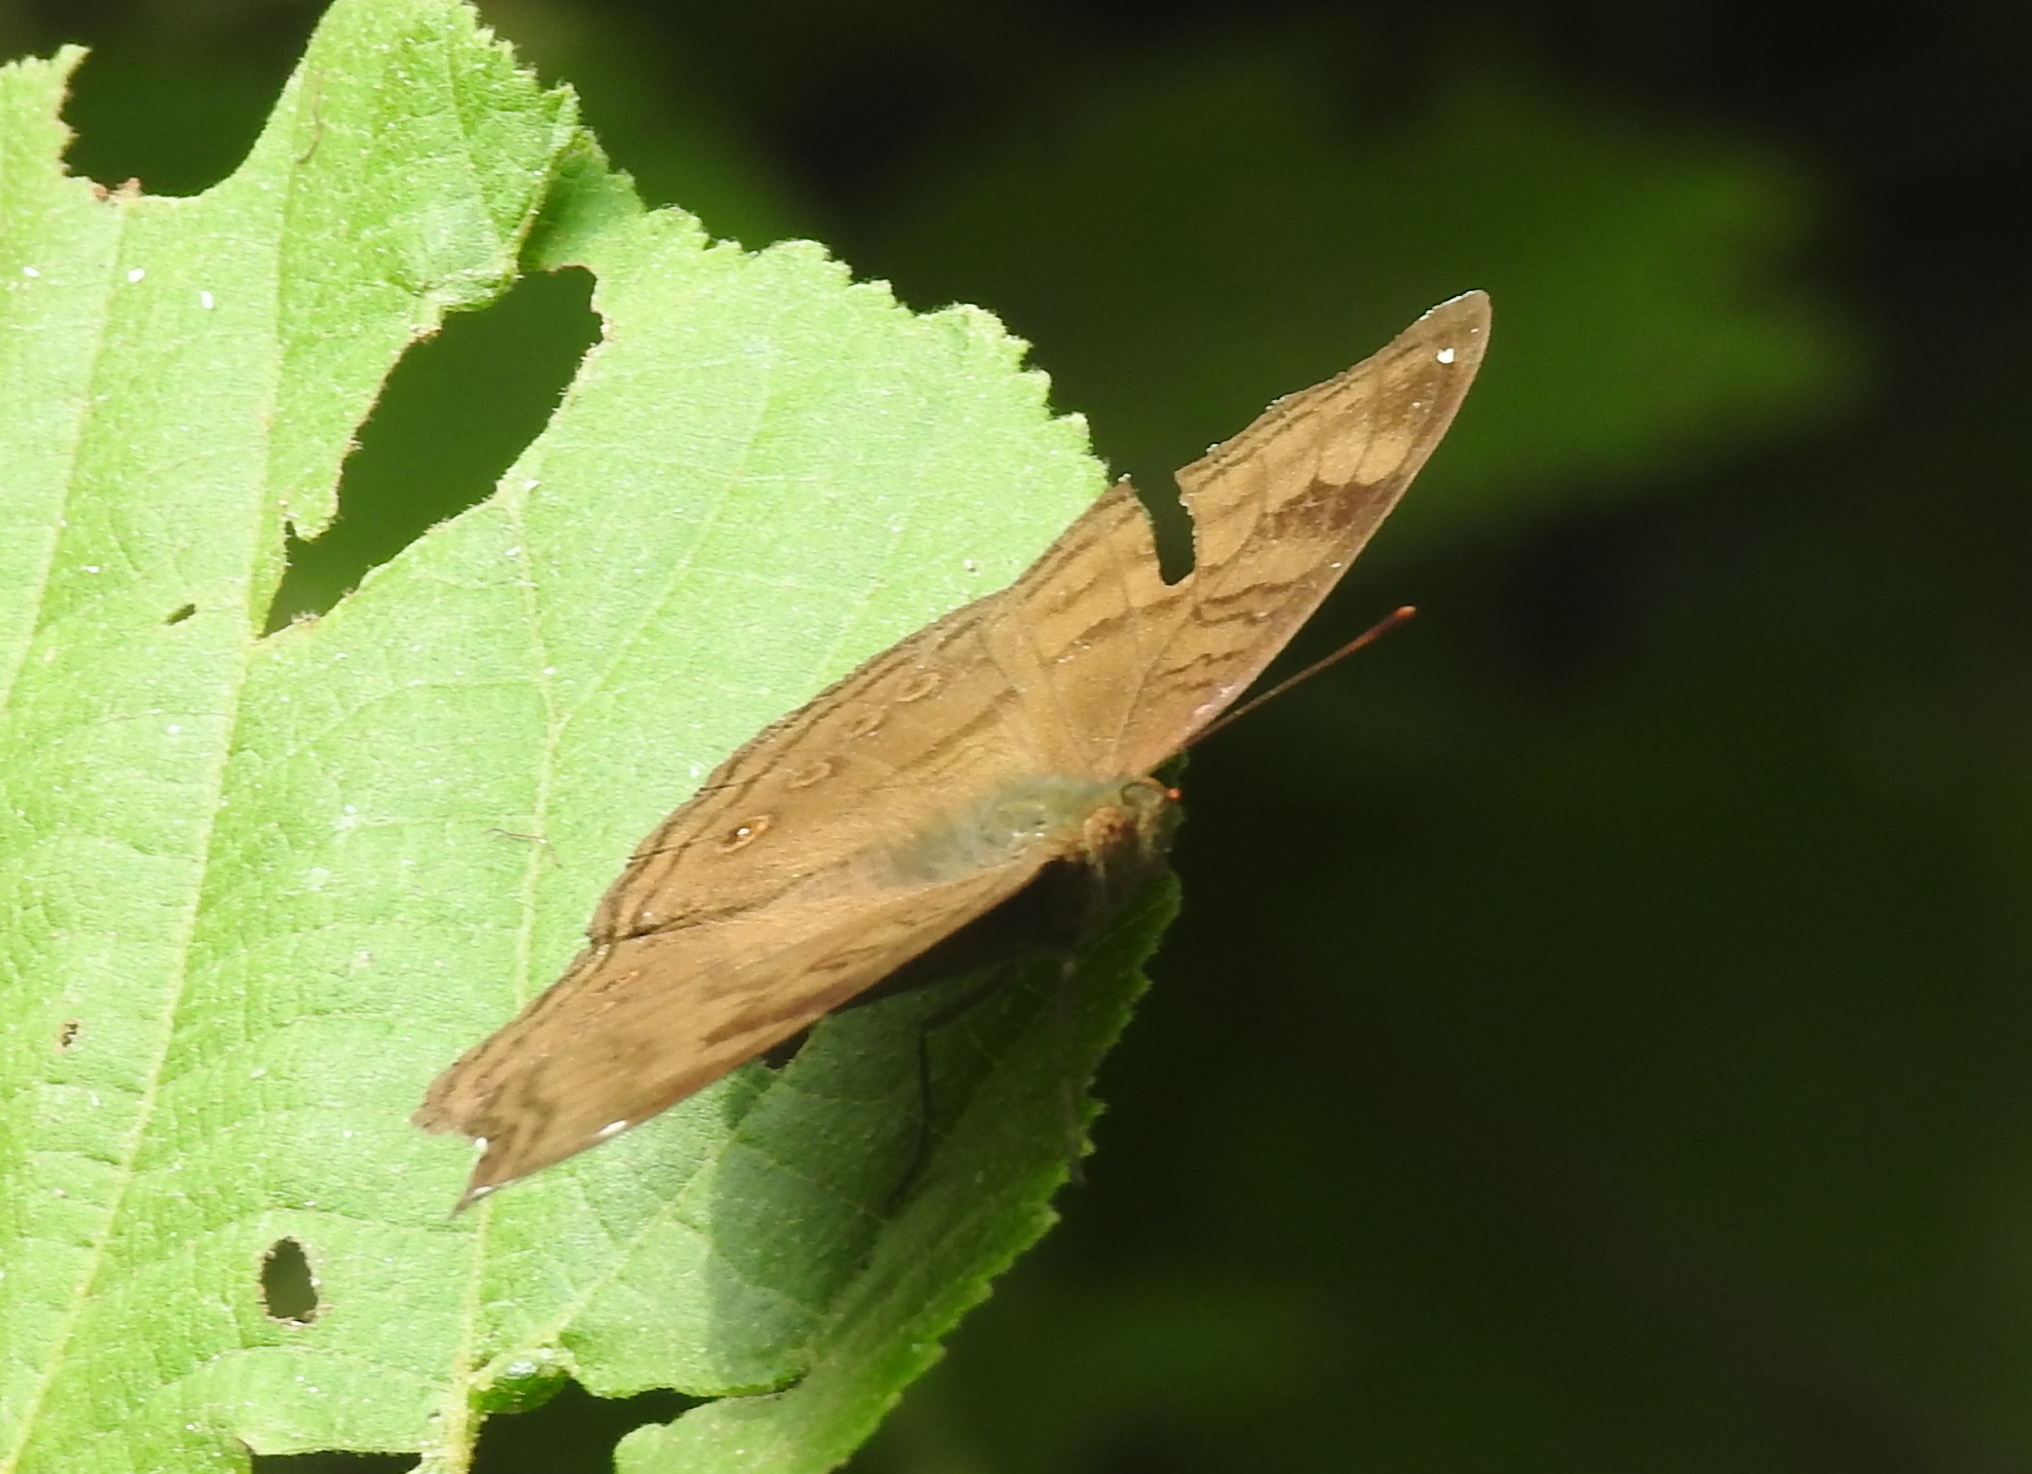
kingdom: Animalia
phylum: Arthropoda
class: Insecta
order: Lepidoptera
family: Nymphalidae
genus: Junonia
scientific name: Junonia iphita
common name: Chocolate pansy
